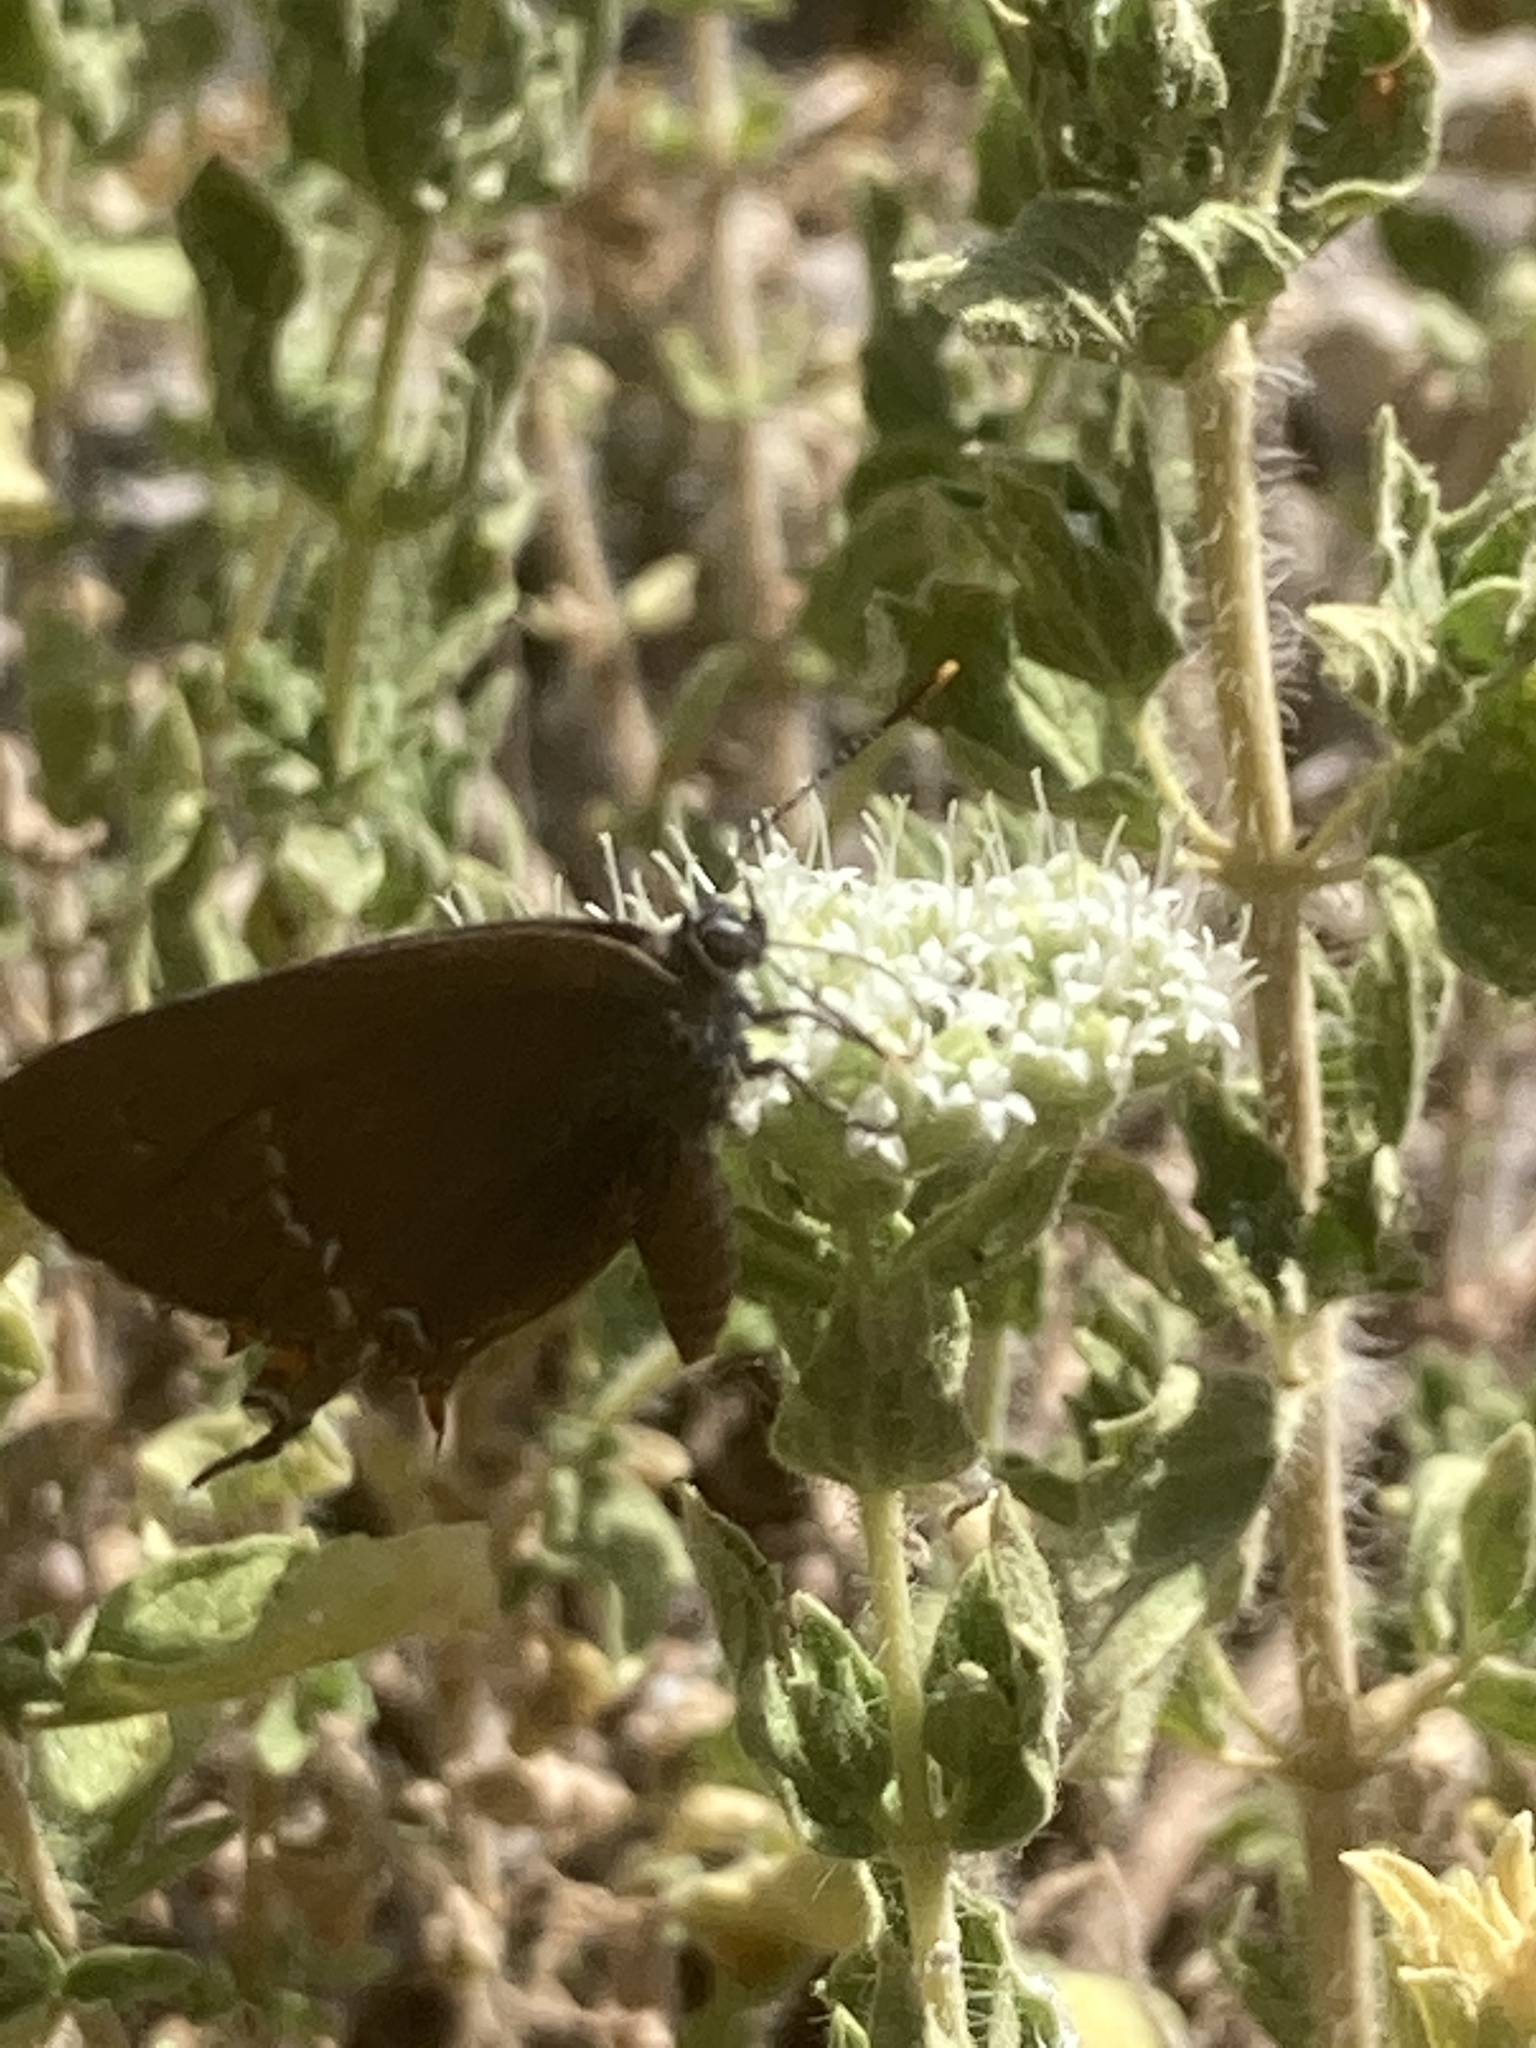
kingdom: Animalia
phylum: Arthropoda
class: Insecta
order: Lepidoptera
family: Lycaenidae
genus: Nordmannia
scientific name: Nordmannia ilicis
